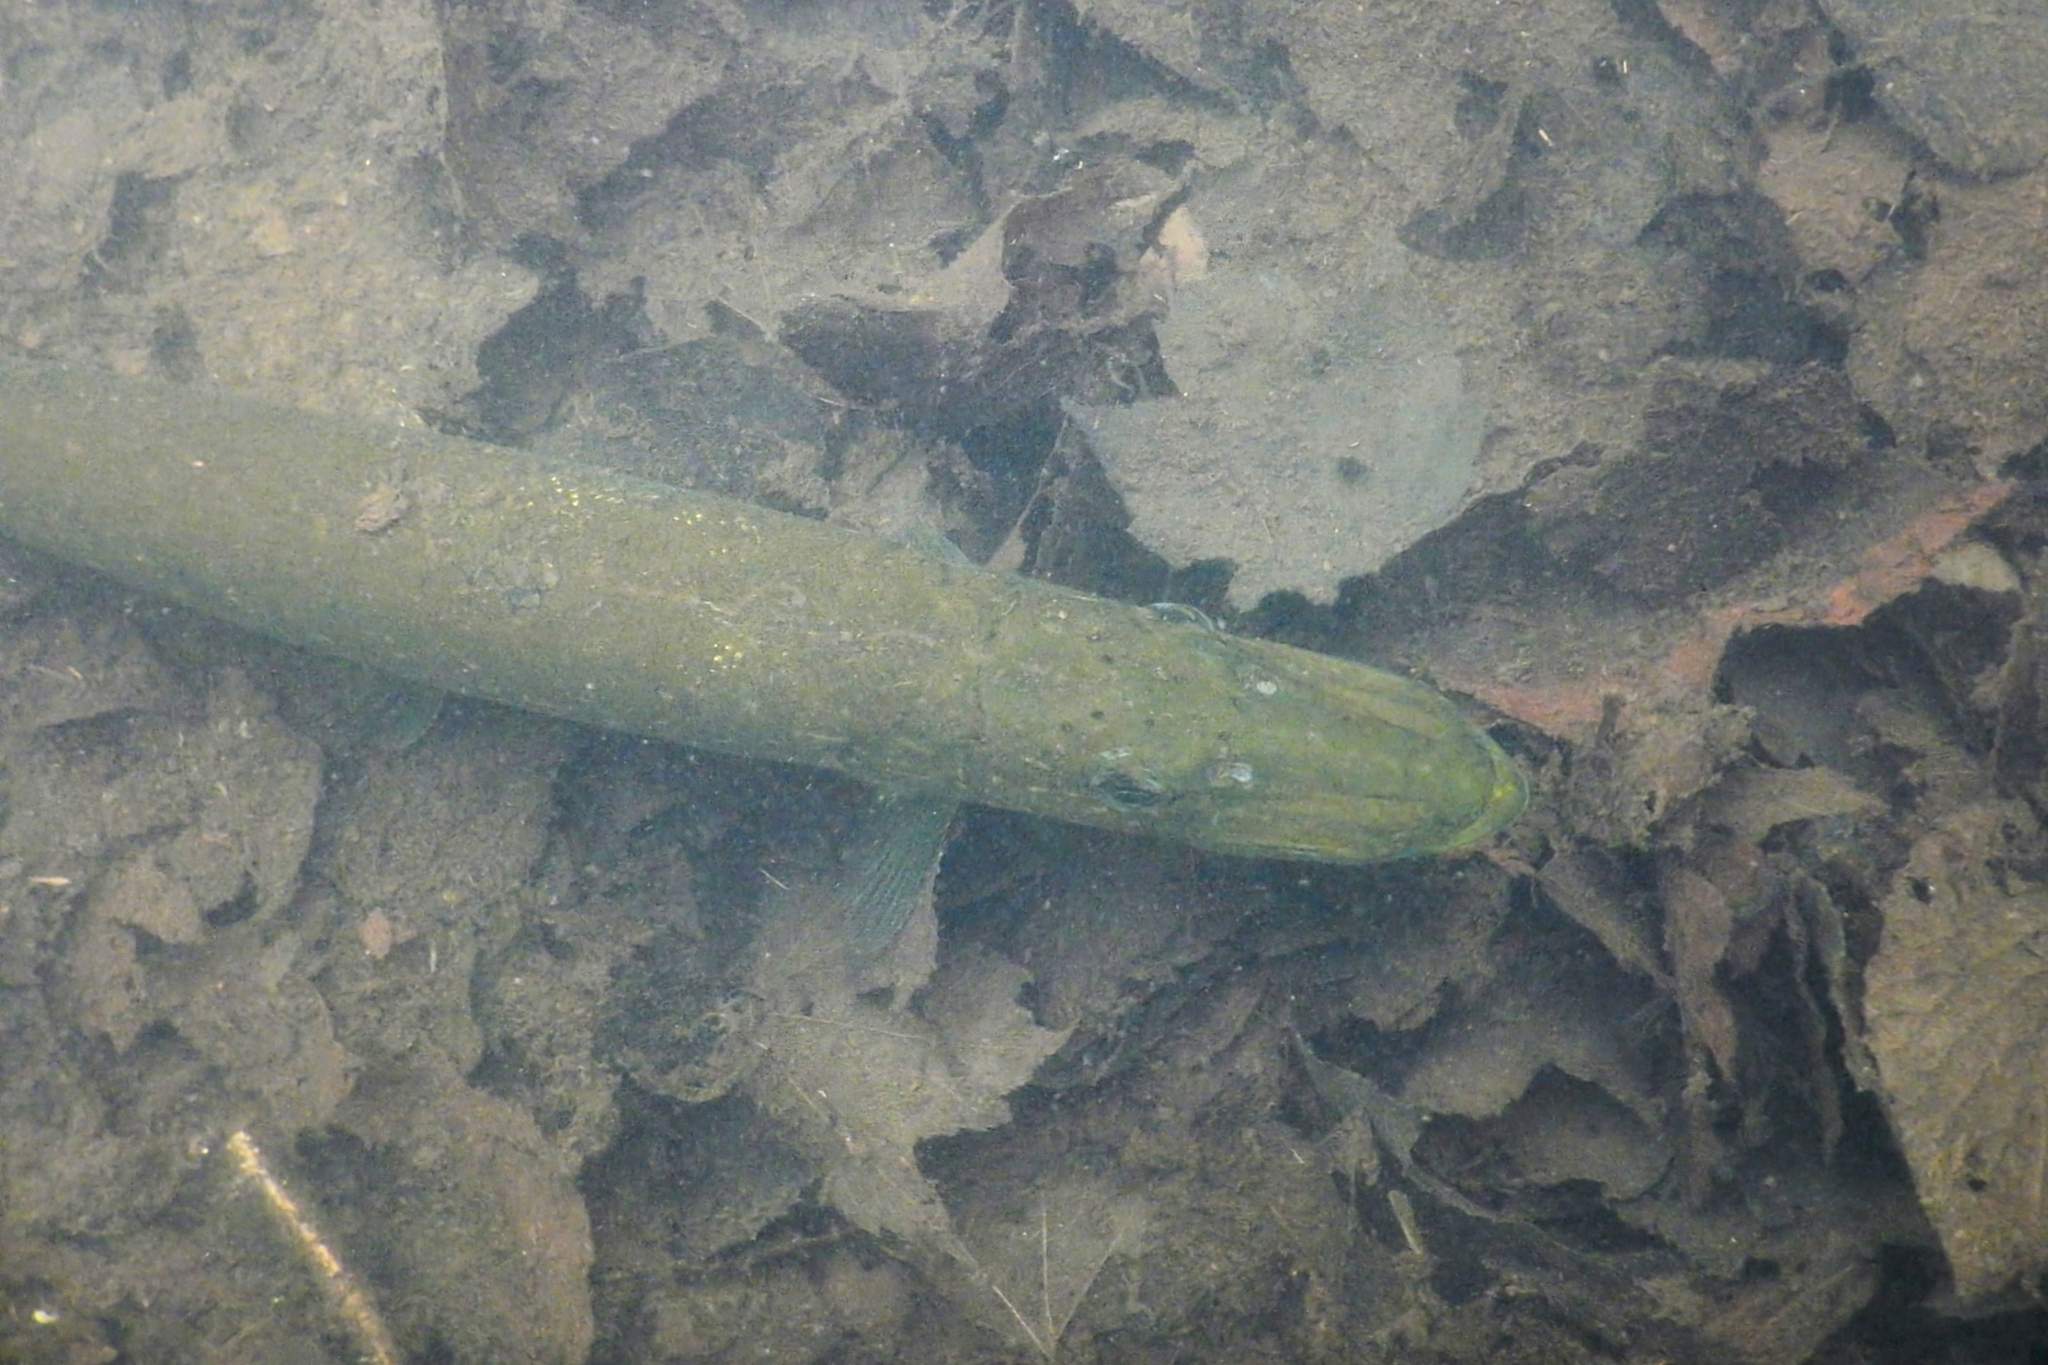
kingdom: Animalia
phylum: Chordata
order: Esociformes
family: Esocidae
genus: Esox
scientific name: Esox lucius
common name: Northern pike
